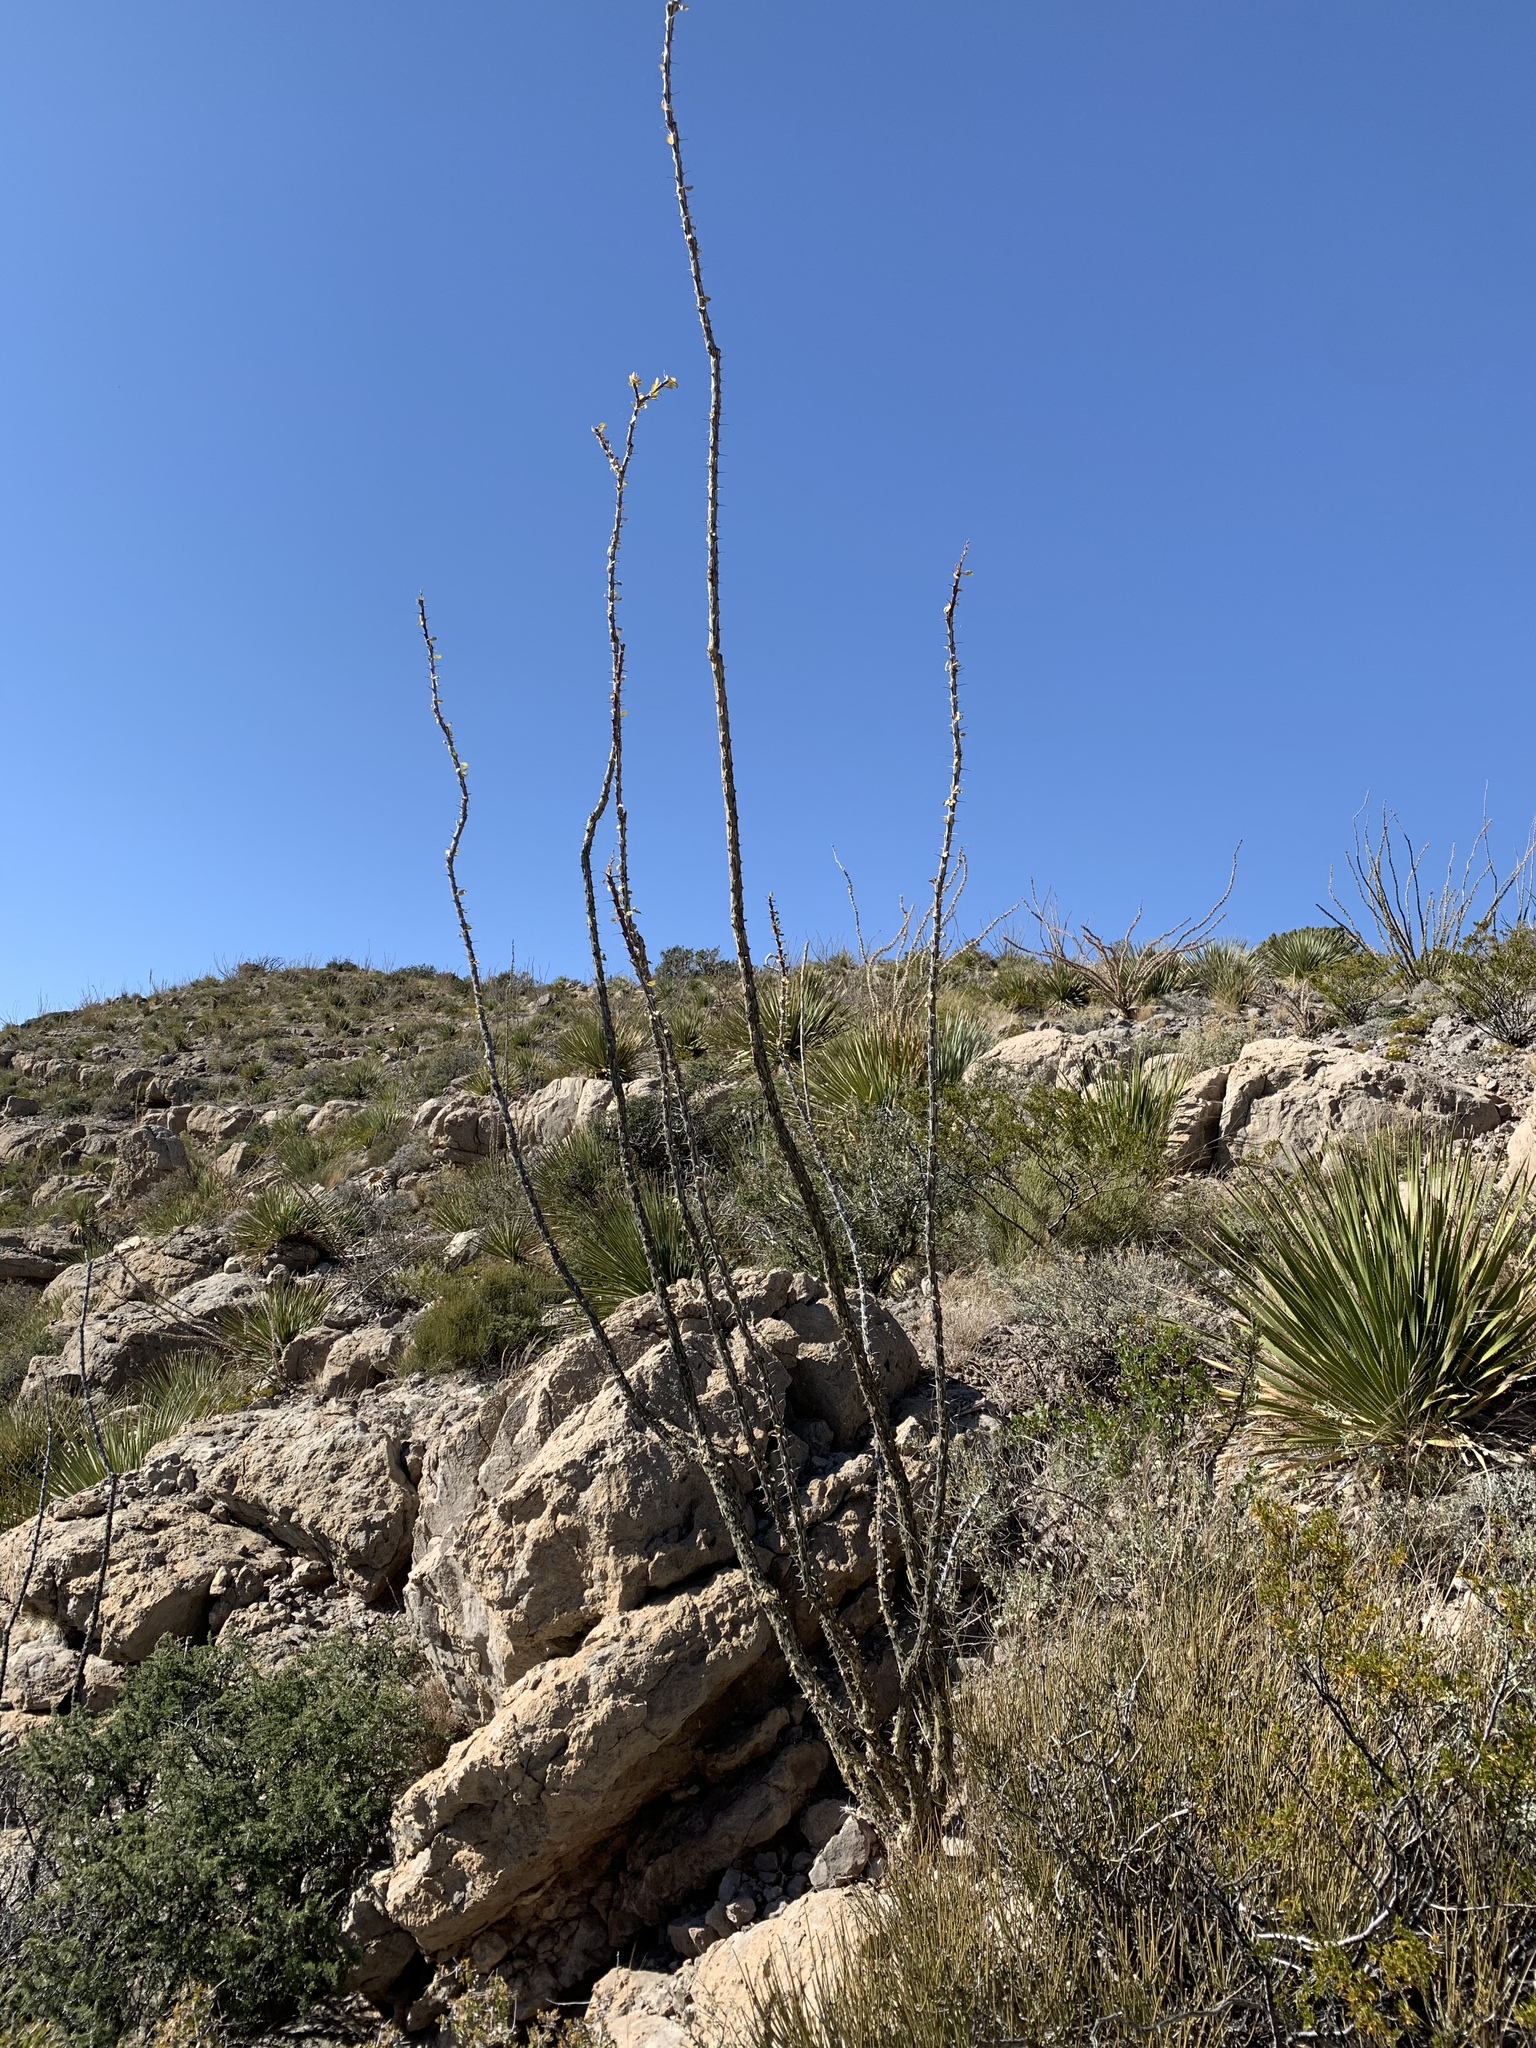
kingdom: Plantae
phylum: Tracheophyta
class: Magnoliopsida
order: Ericales
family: Fouquieriaceae
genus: Fouquieria
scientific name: Fouquieria splendens
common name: Vine-cactus
